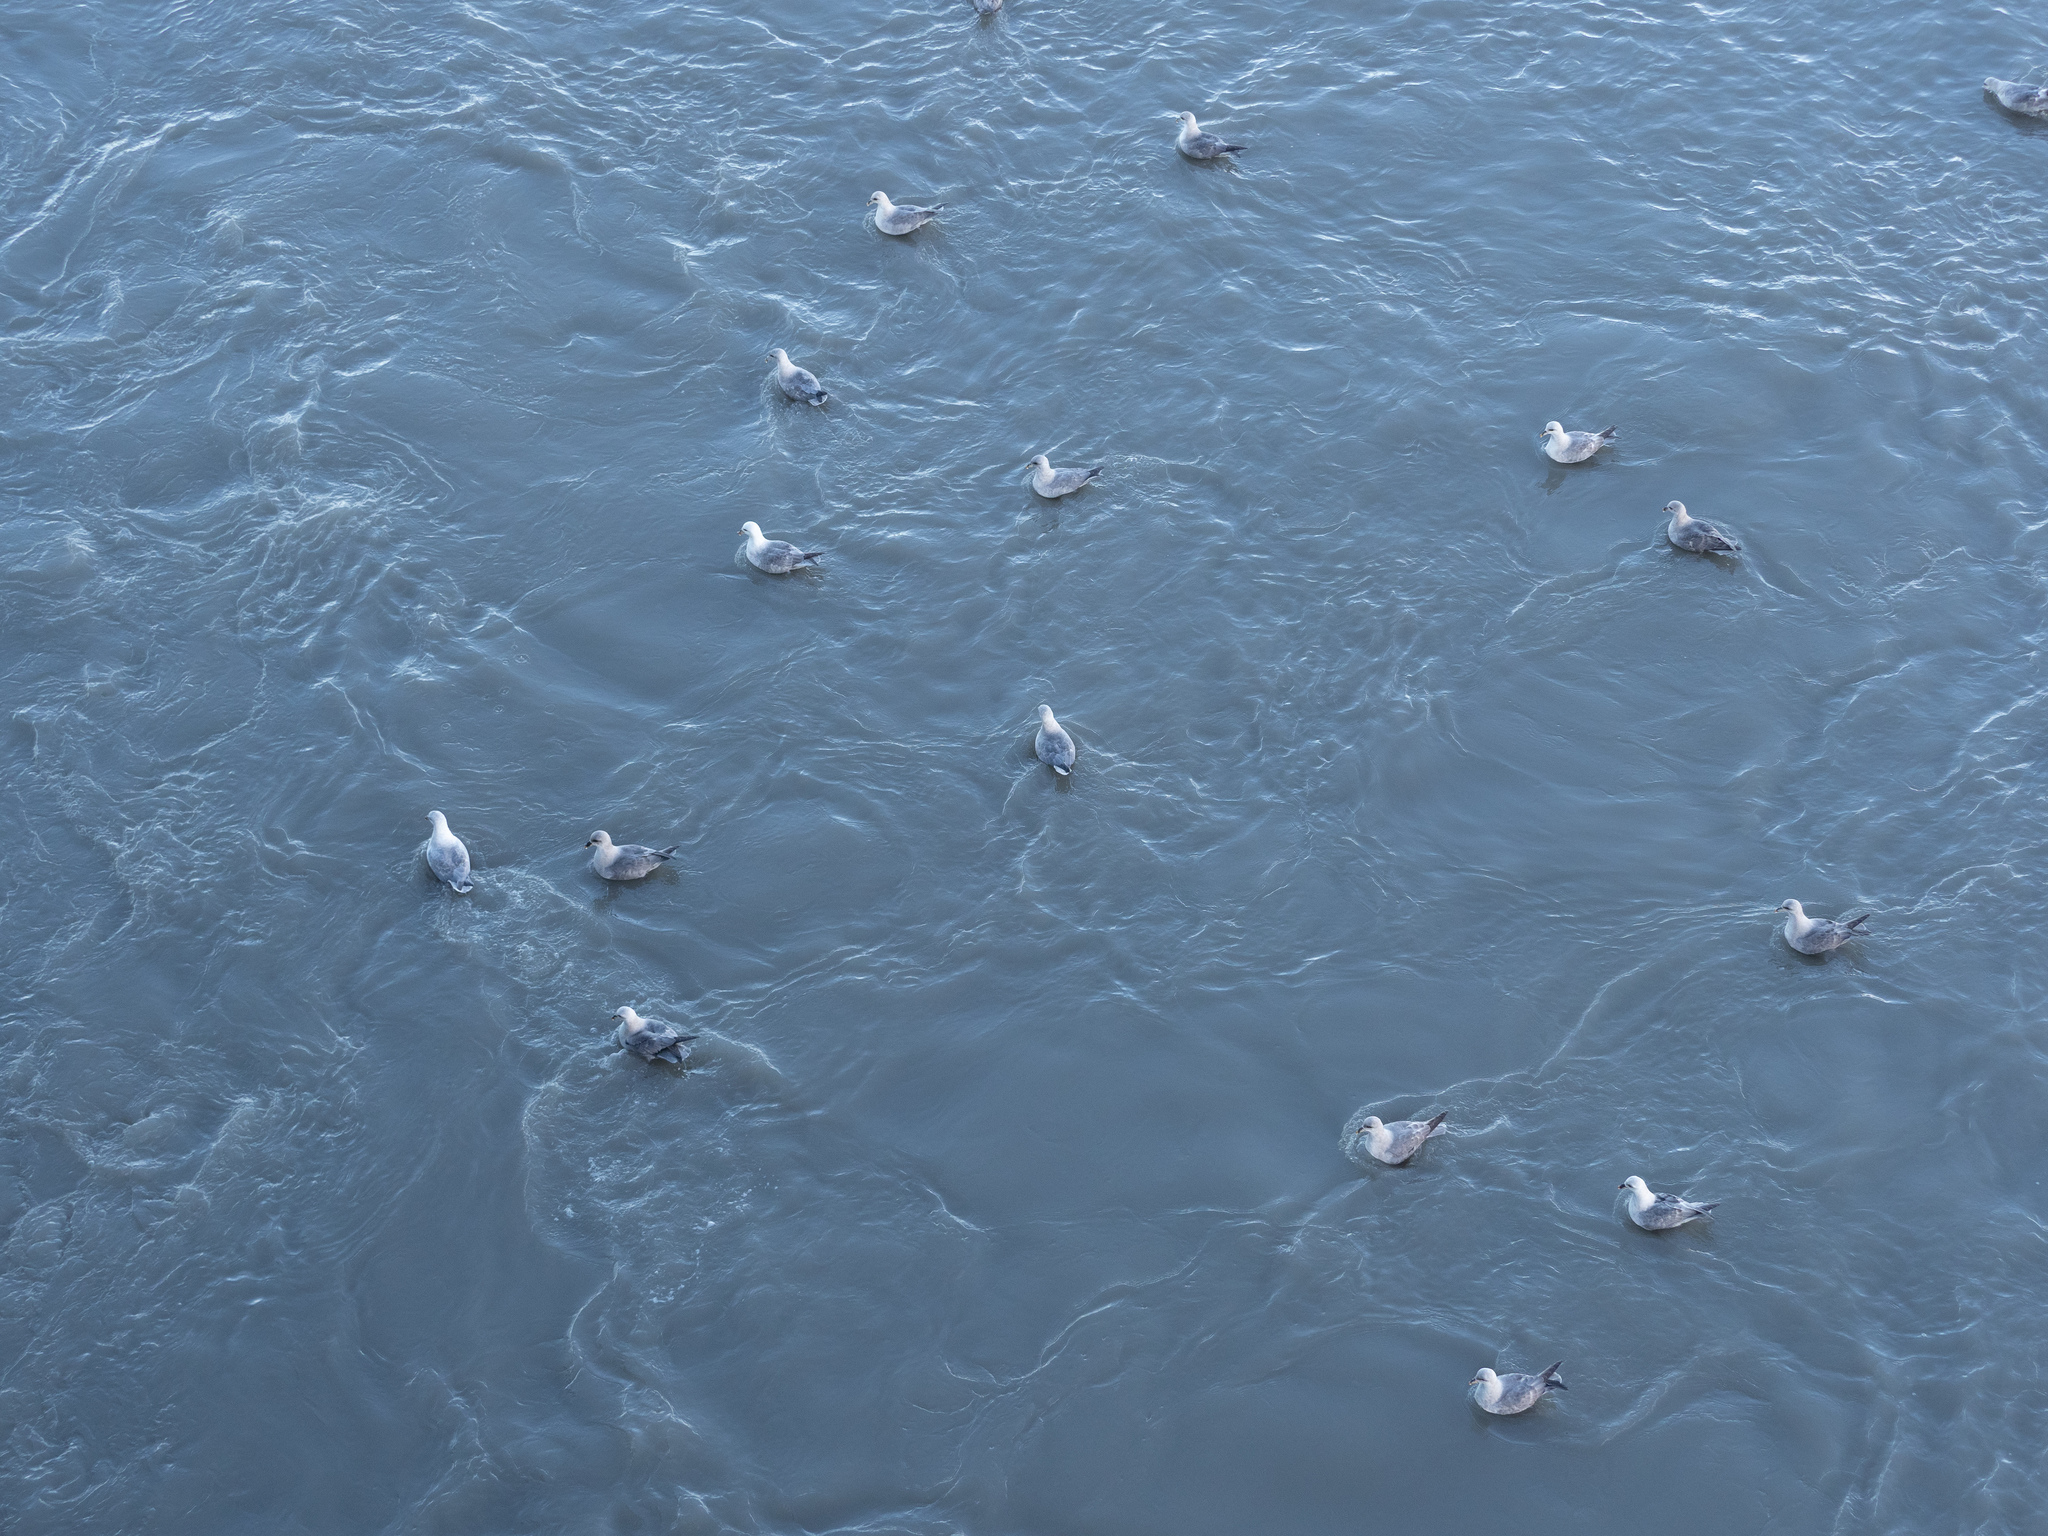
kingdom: Animalia
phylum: Chordata
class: Aves
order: Procellariiformes
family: Procellariidae
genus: Fulmarus
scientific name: Fulmarus glacialis
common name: Northern fulmar
